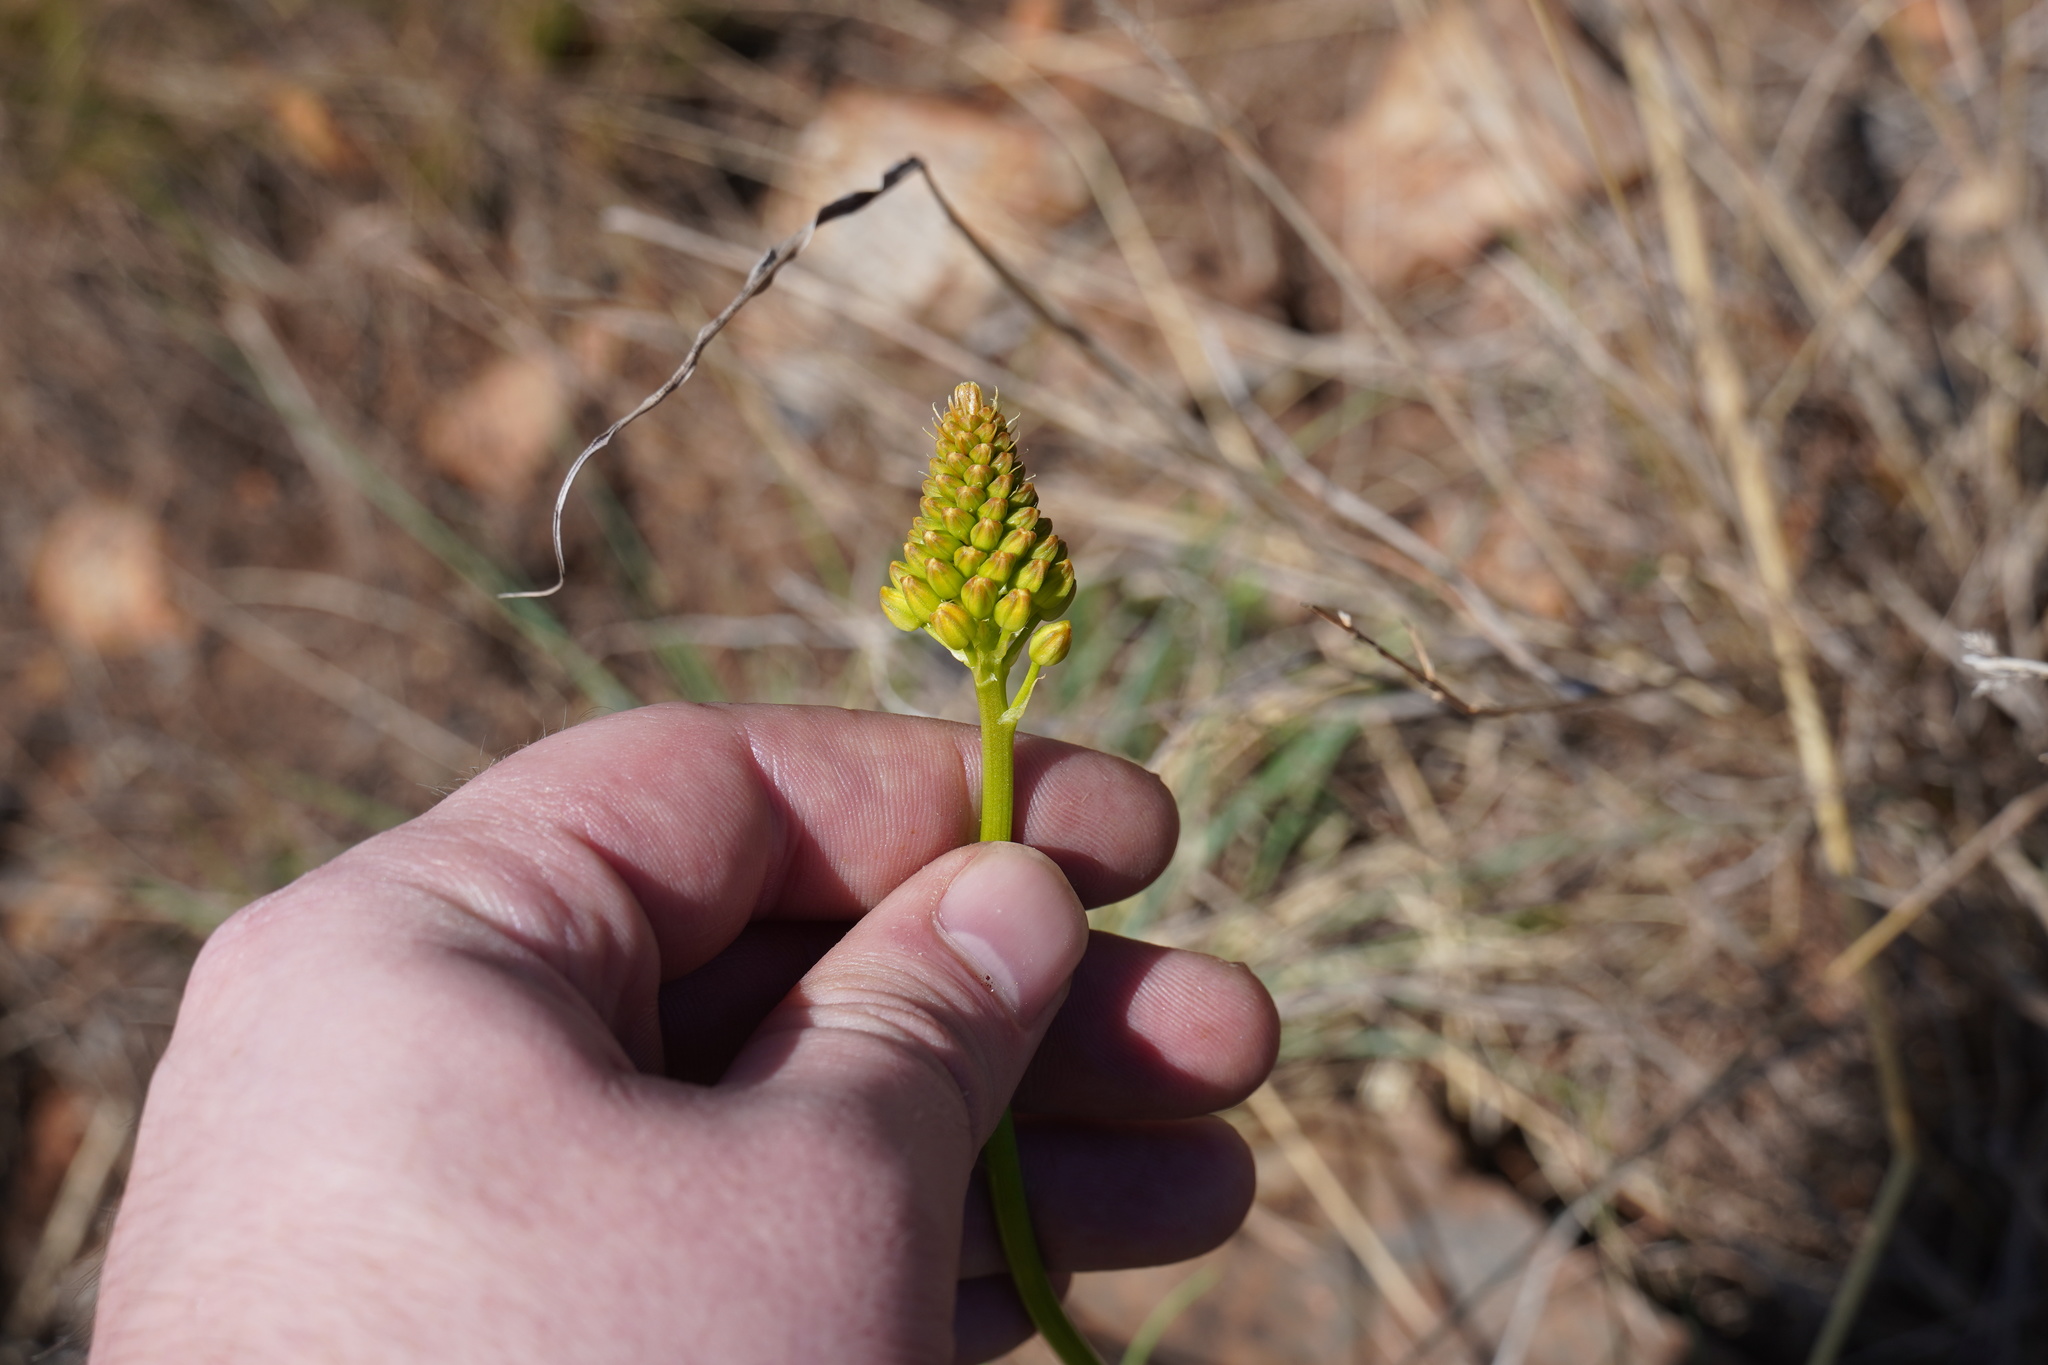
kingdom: Plantae
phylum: Tracheophyta
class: Liliopsida
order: Asparagales
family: Asphodelaceae
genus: Bulbine
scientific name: Bulbine abyssinica
